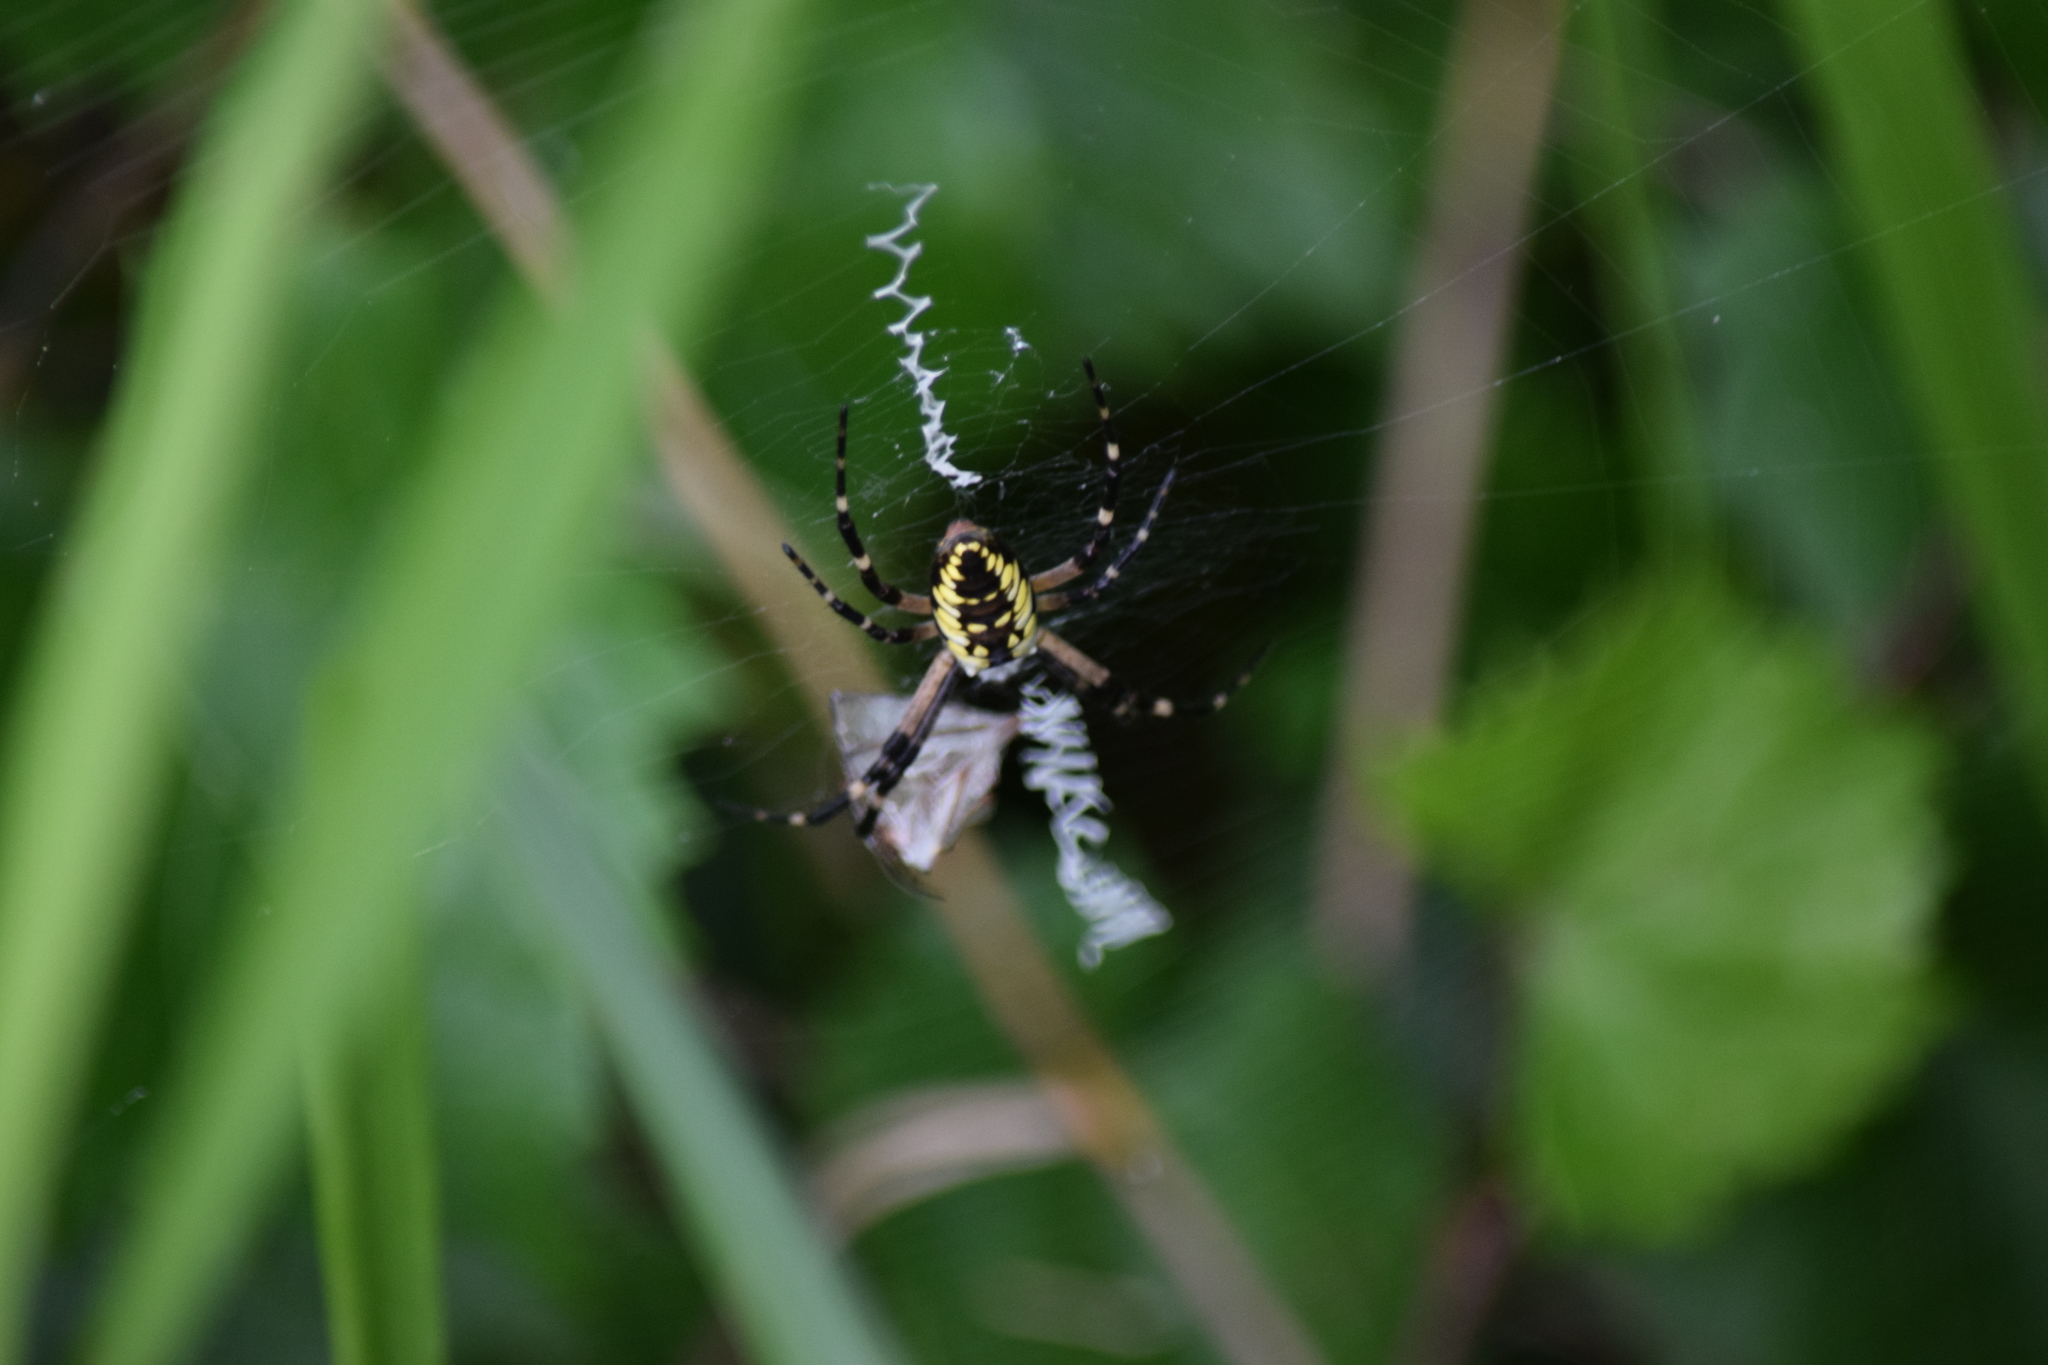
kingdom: Animalia
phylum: Arthropoda
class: Arachnida
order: Araneae
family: Araneidae
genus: Argiope
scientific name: Argiope aurantia
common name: Orb weavers
